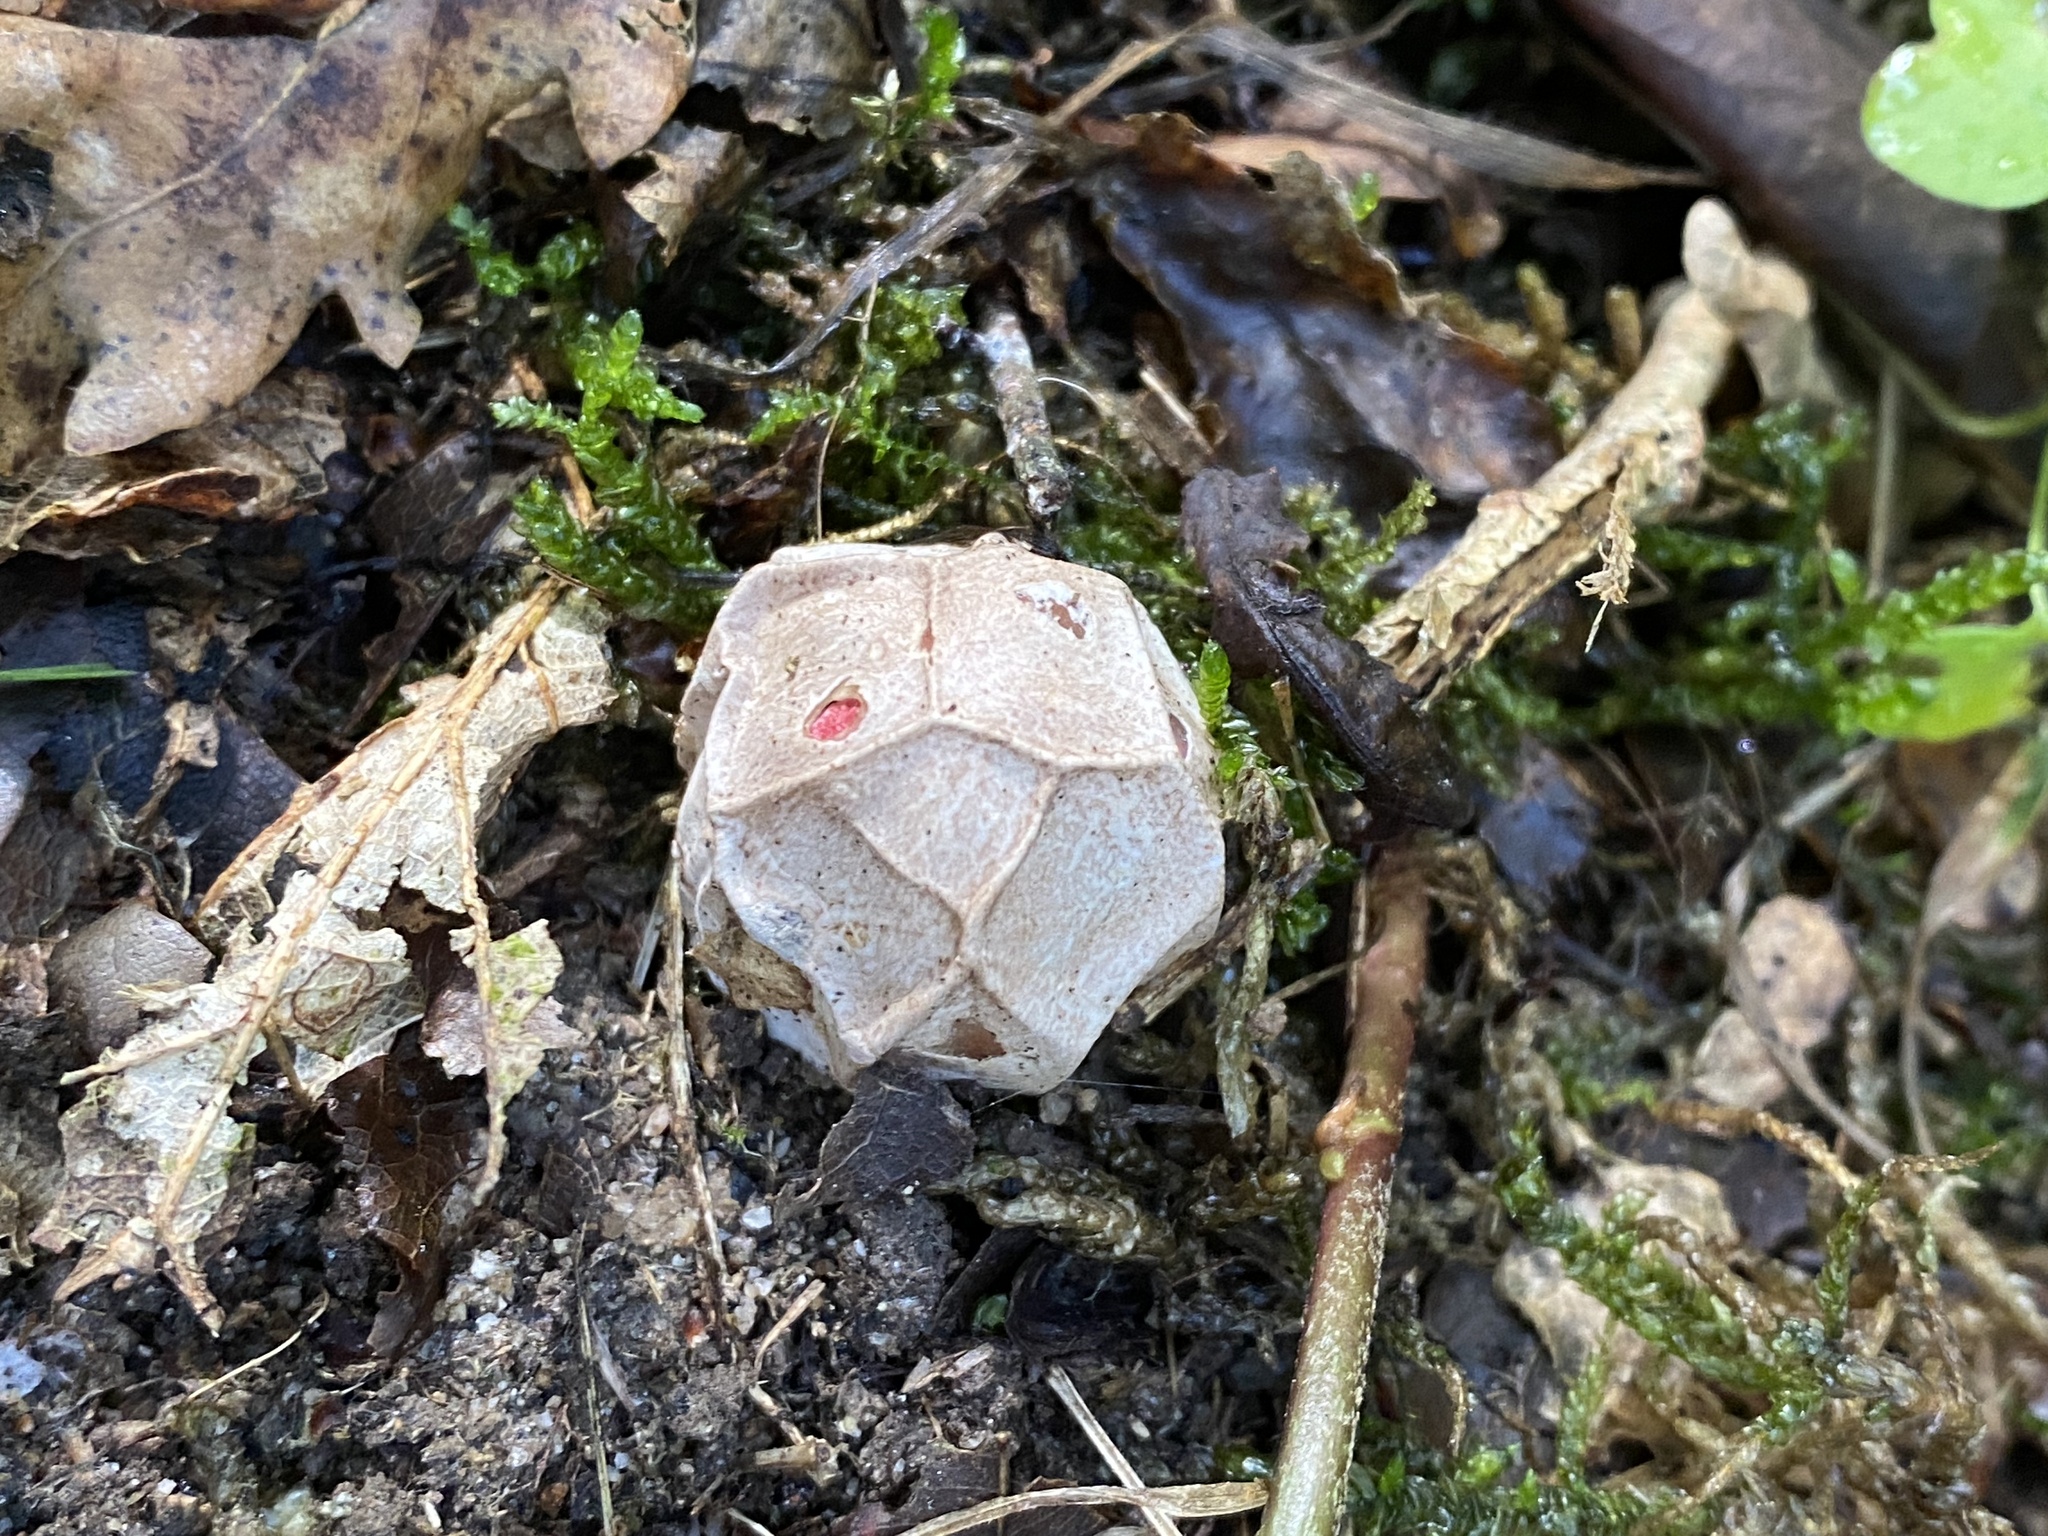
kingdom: Fungi
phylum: Basidiomycota
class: Agaricomycetes
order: Phallales
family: Phallaceae
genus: Clathrus
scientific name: Clathrus ruber
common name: Red cage
